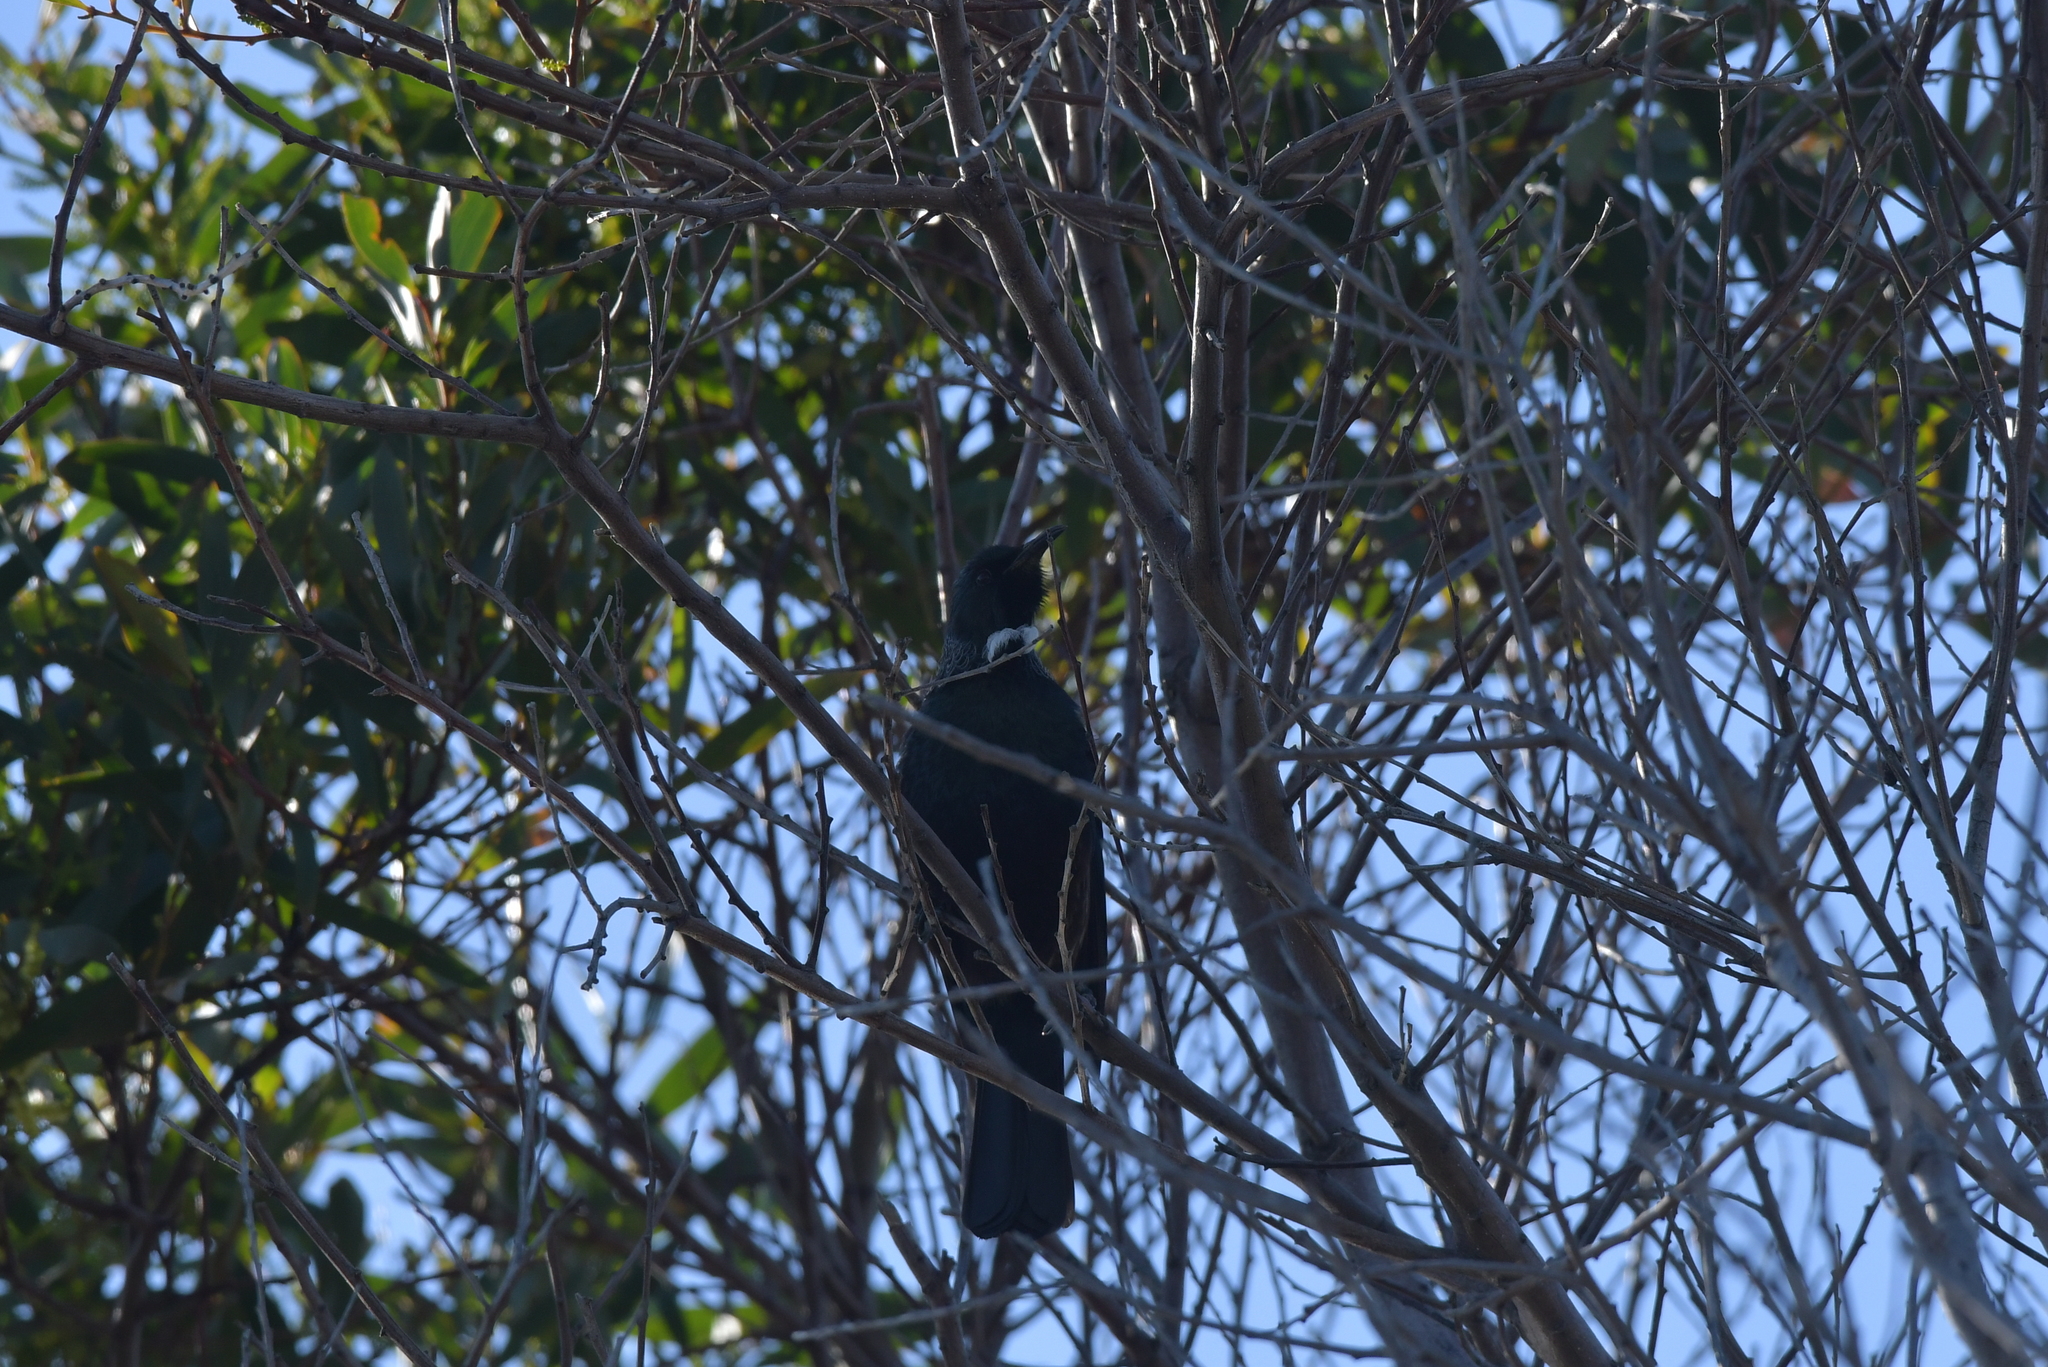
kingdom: Animalia
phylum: Chordata
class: Aves
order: Passeriformes
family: Meliphagidae
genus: Prosthemadera
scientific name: Prosthemadera novaeseelandiae
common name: Tui
